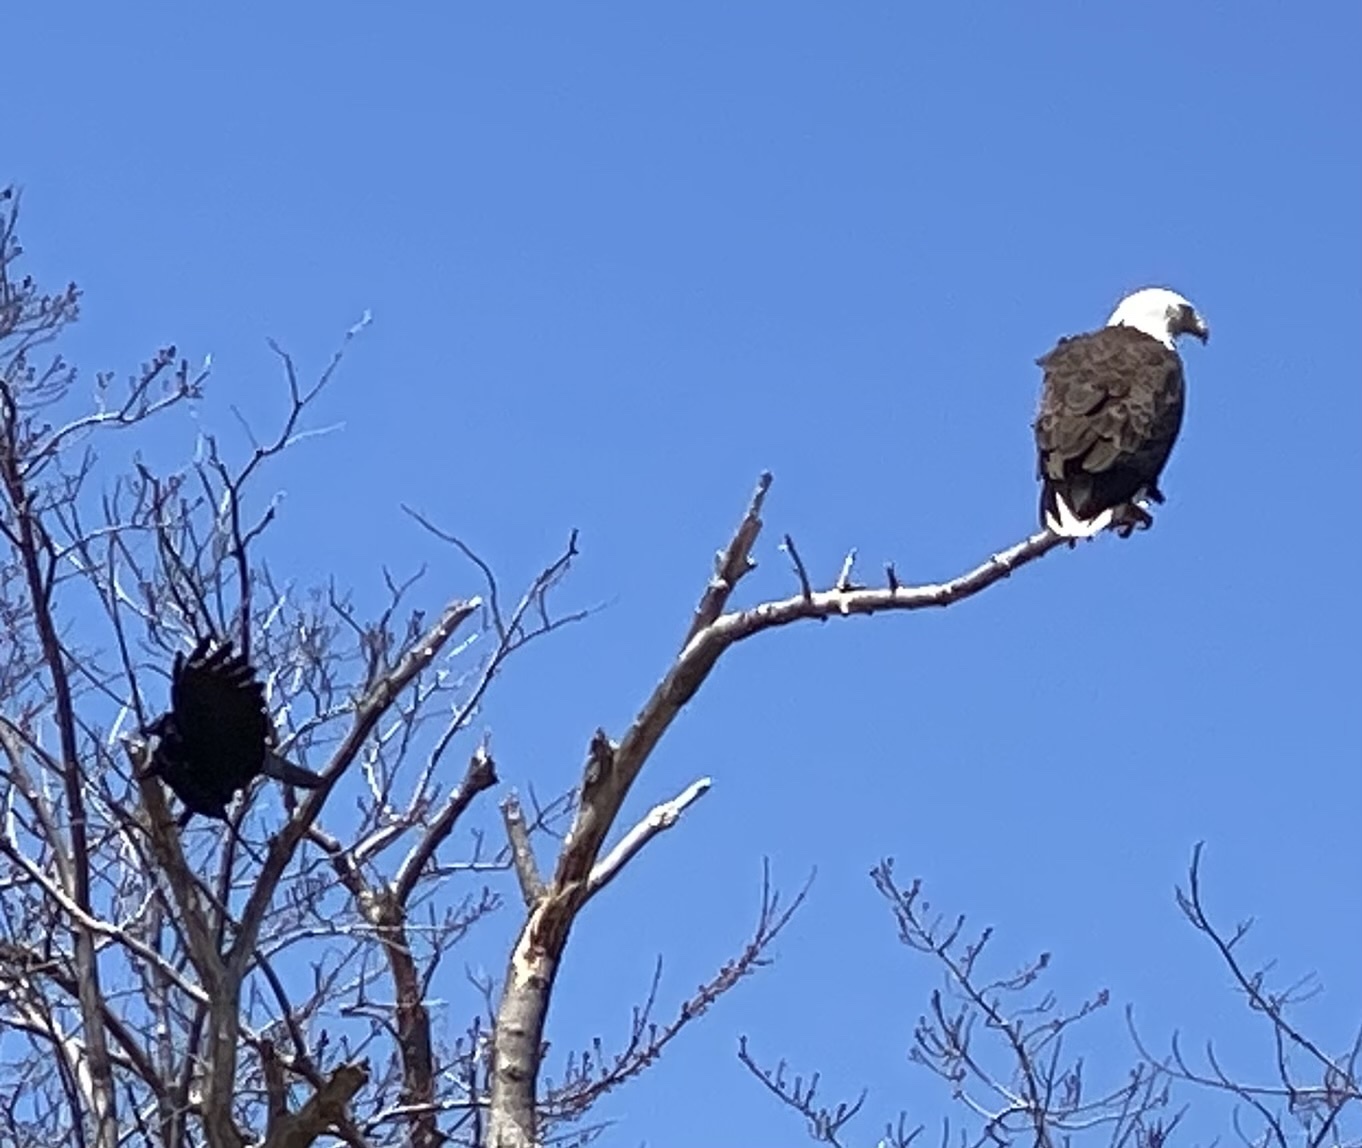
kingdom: Animalia
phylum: Chordata
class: Aves
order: Accipitriformes
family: Accipitridae
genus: Haliaeetus
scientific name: Haliaeetus leucocephalus
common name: Bald eagle
